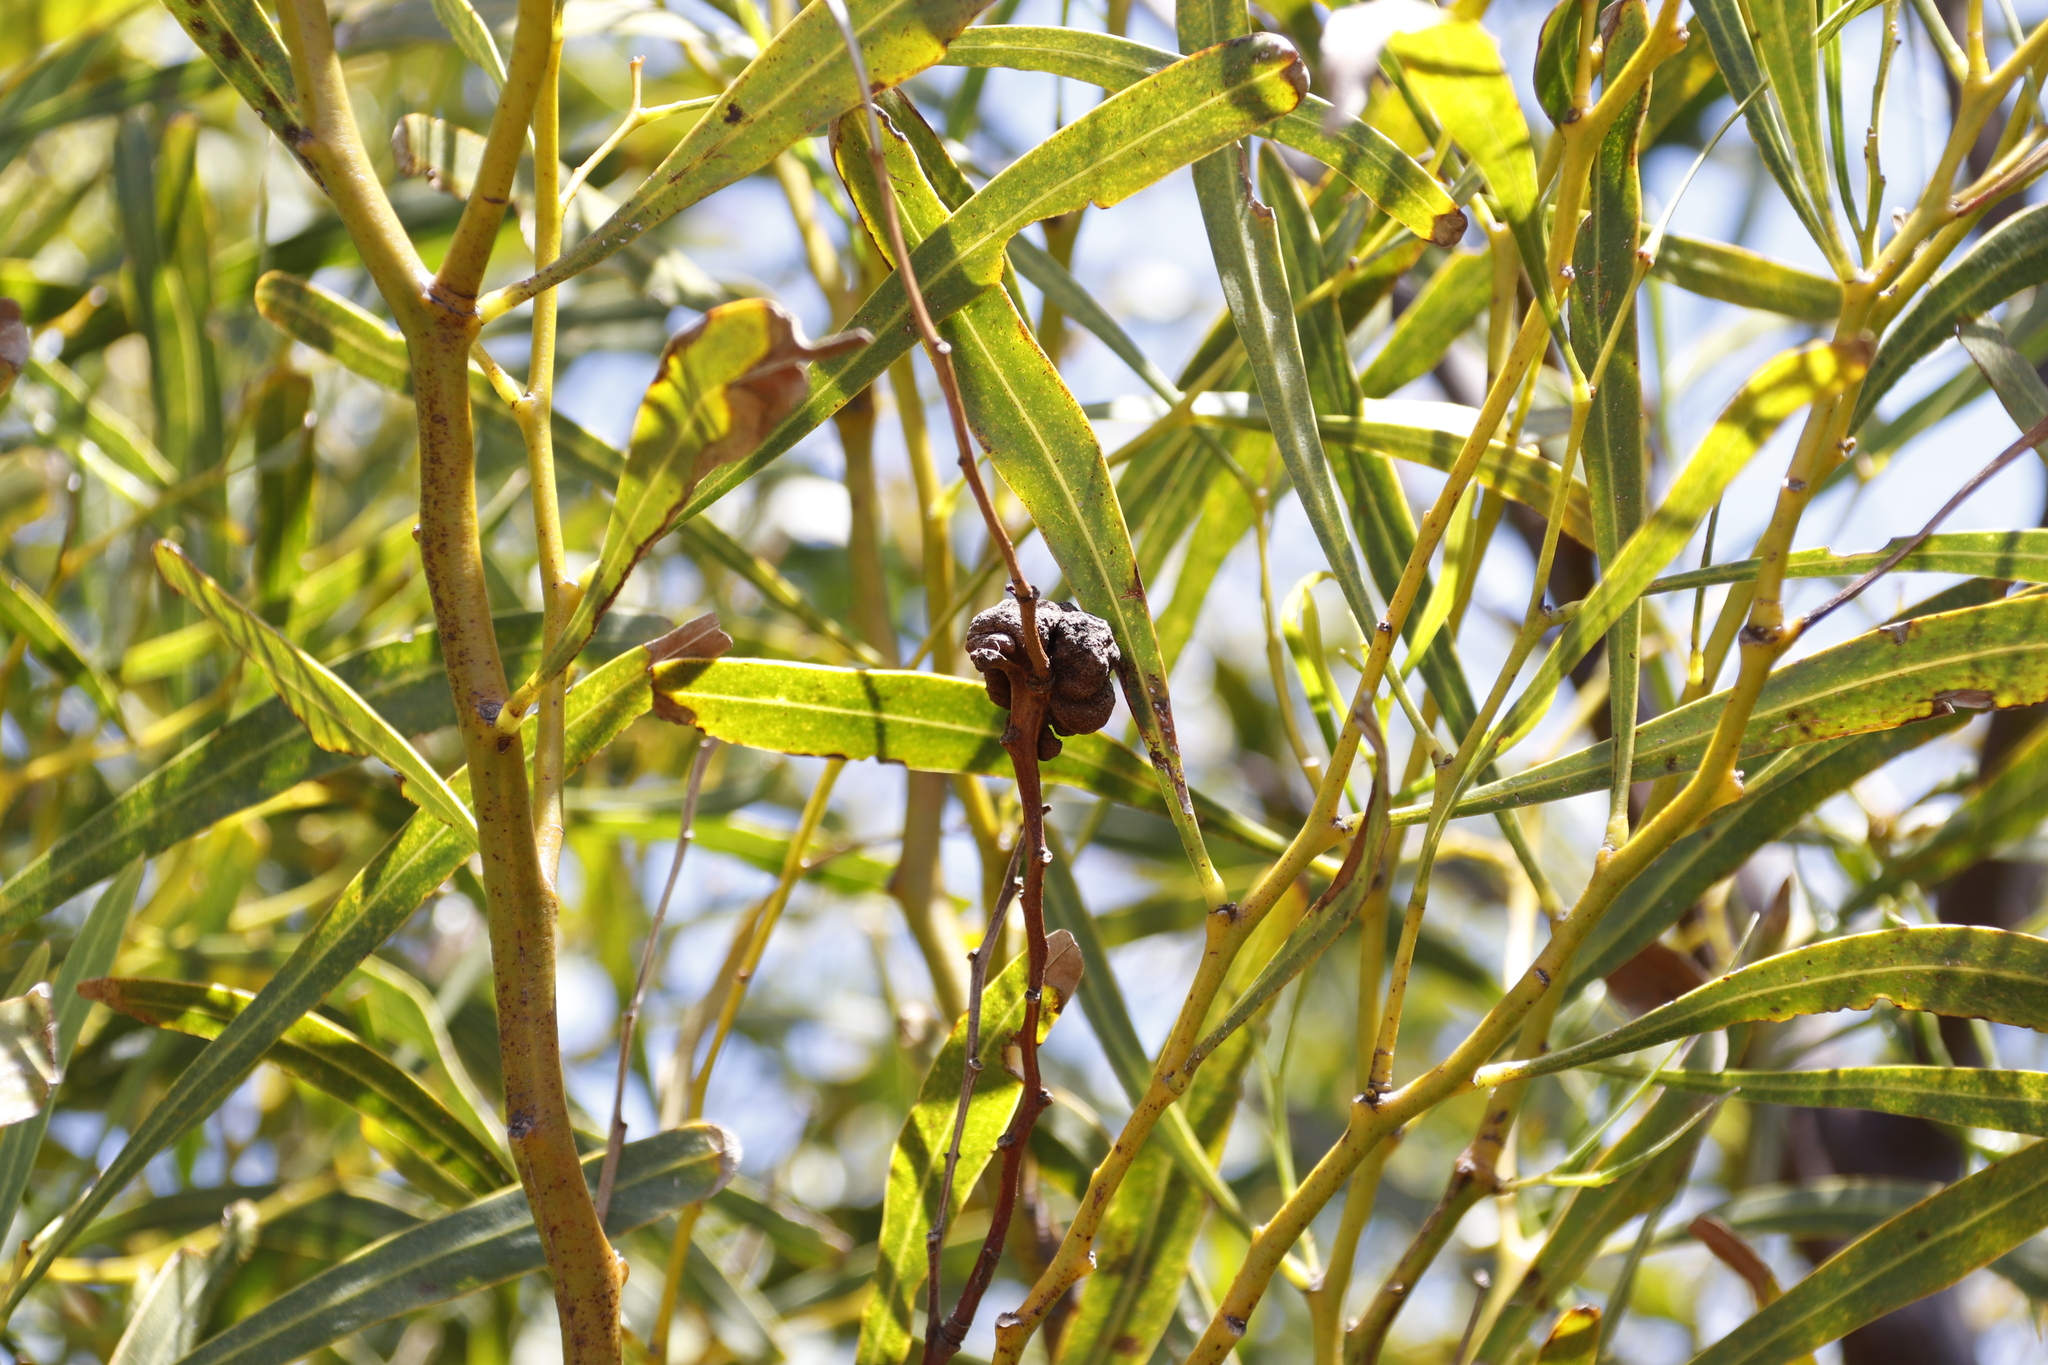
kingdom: Fungi
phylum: Basidiomycota
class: Pucciniomycetes
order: Pucciniales
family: Uromycladiaceae
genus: Uromycladium
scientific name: Uromycladium morrisii
